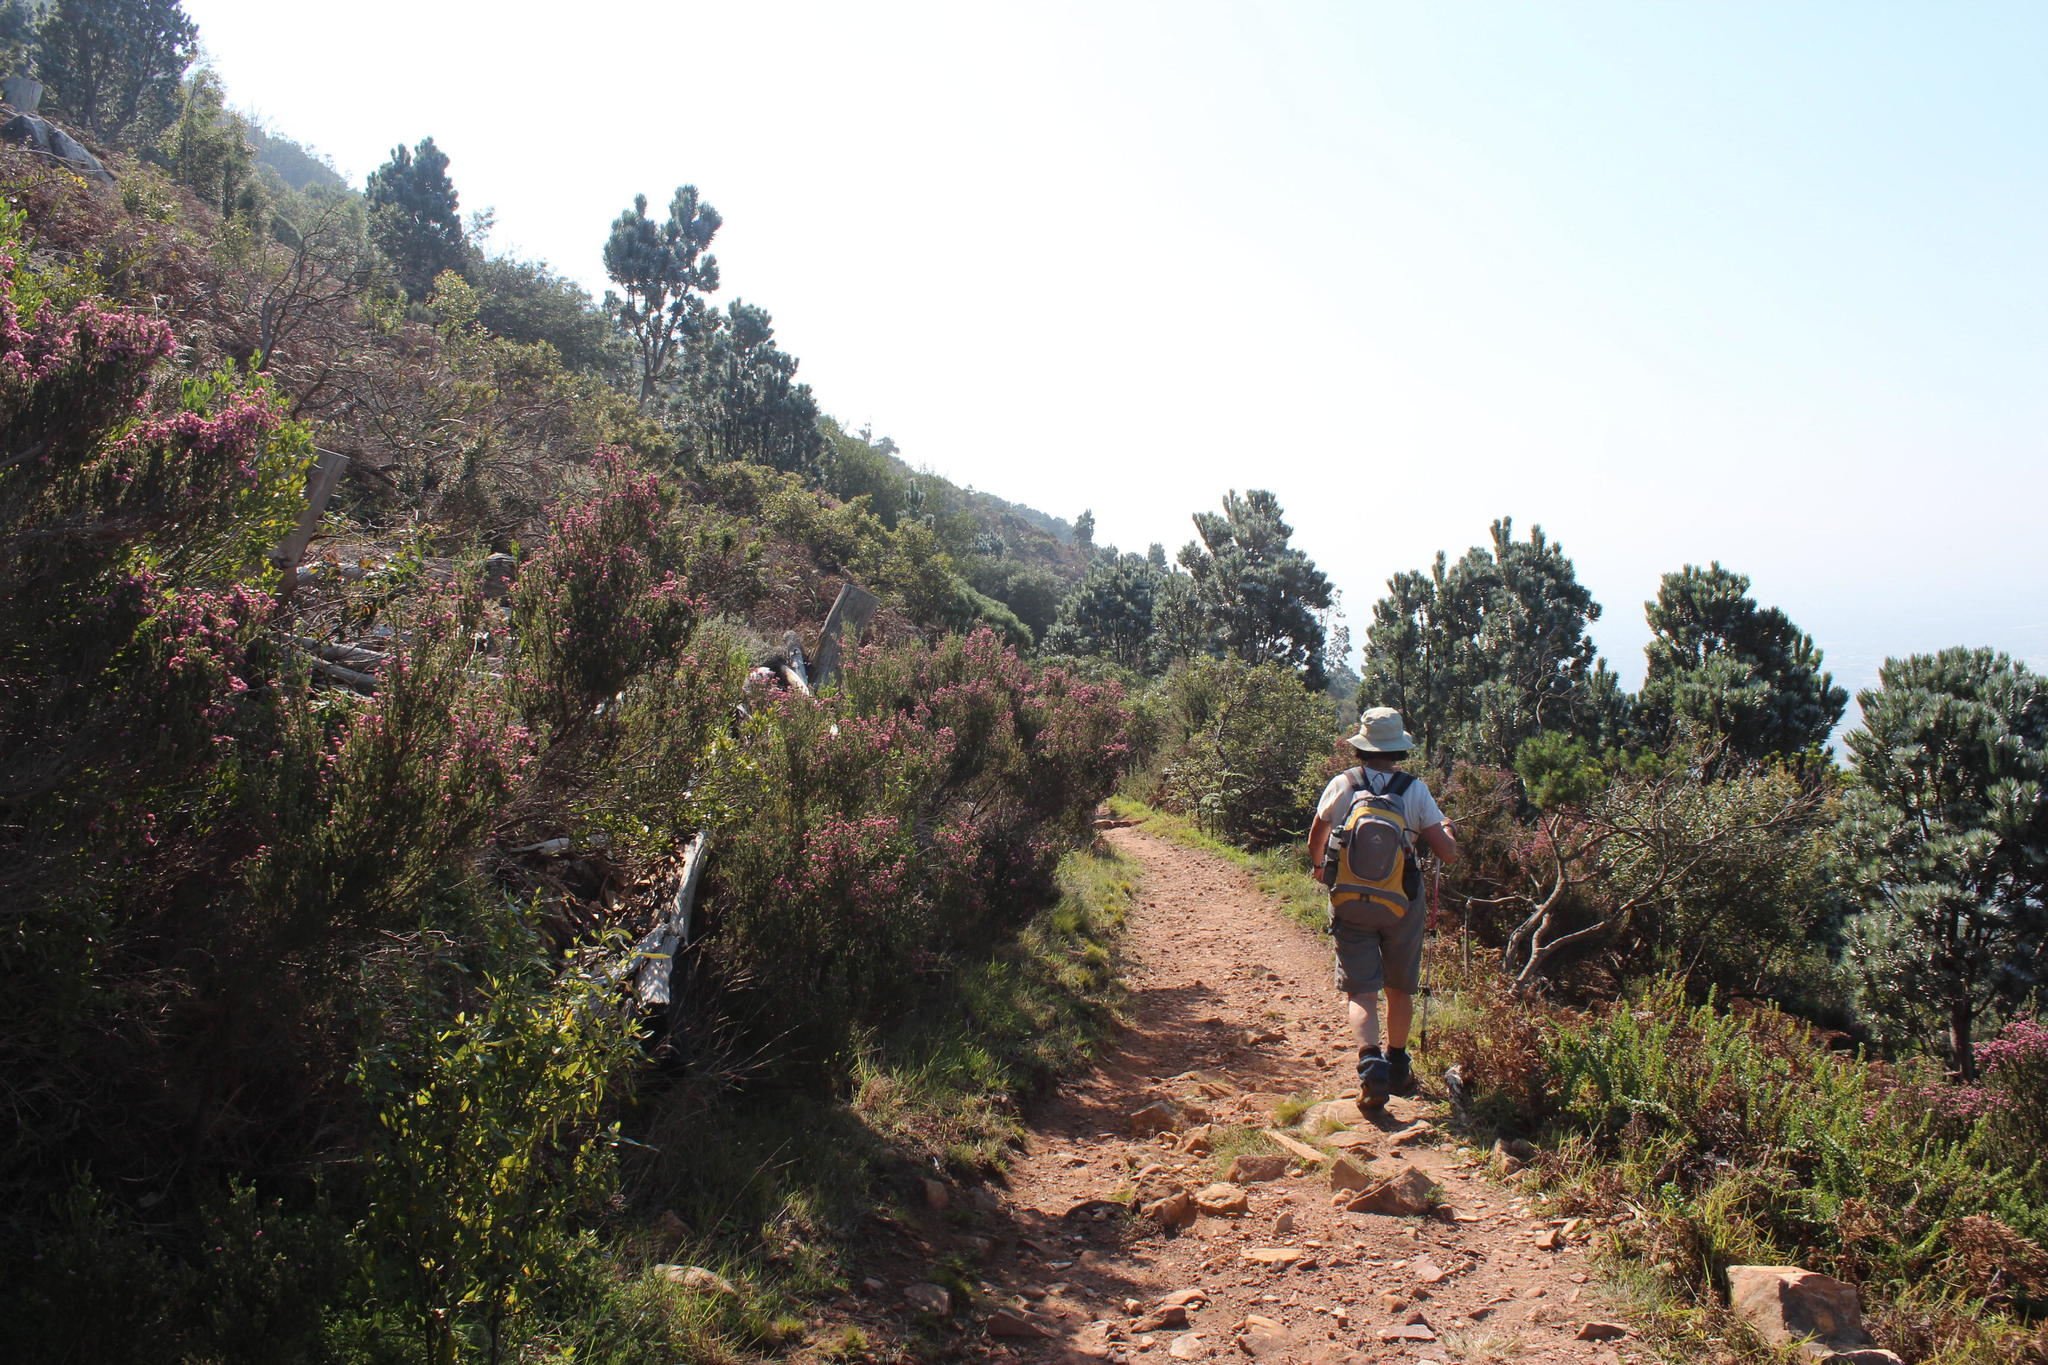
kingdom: Plantae
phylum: Tracheophyta
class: Magnoliopsida
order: Ericales
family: Ericaceae
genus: Erica
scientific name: Erica baccans
